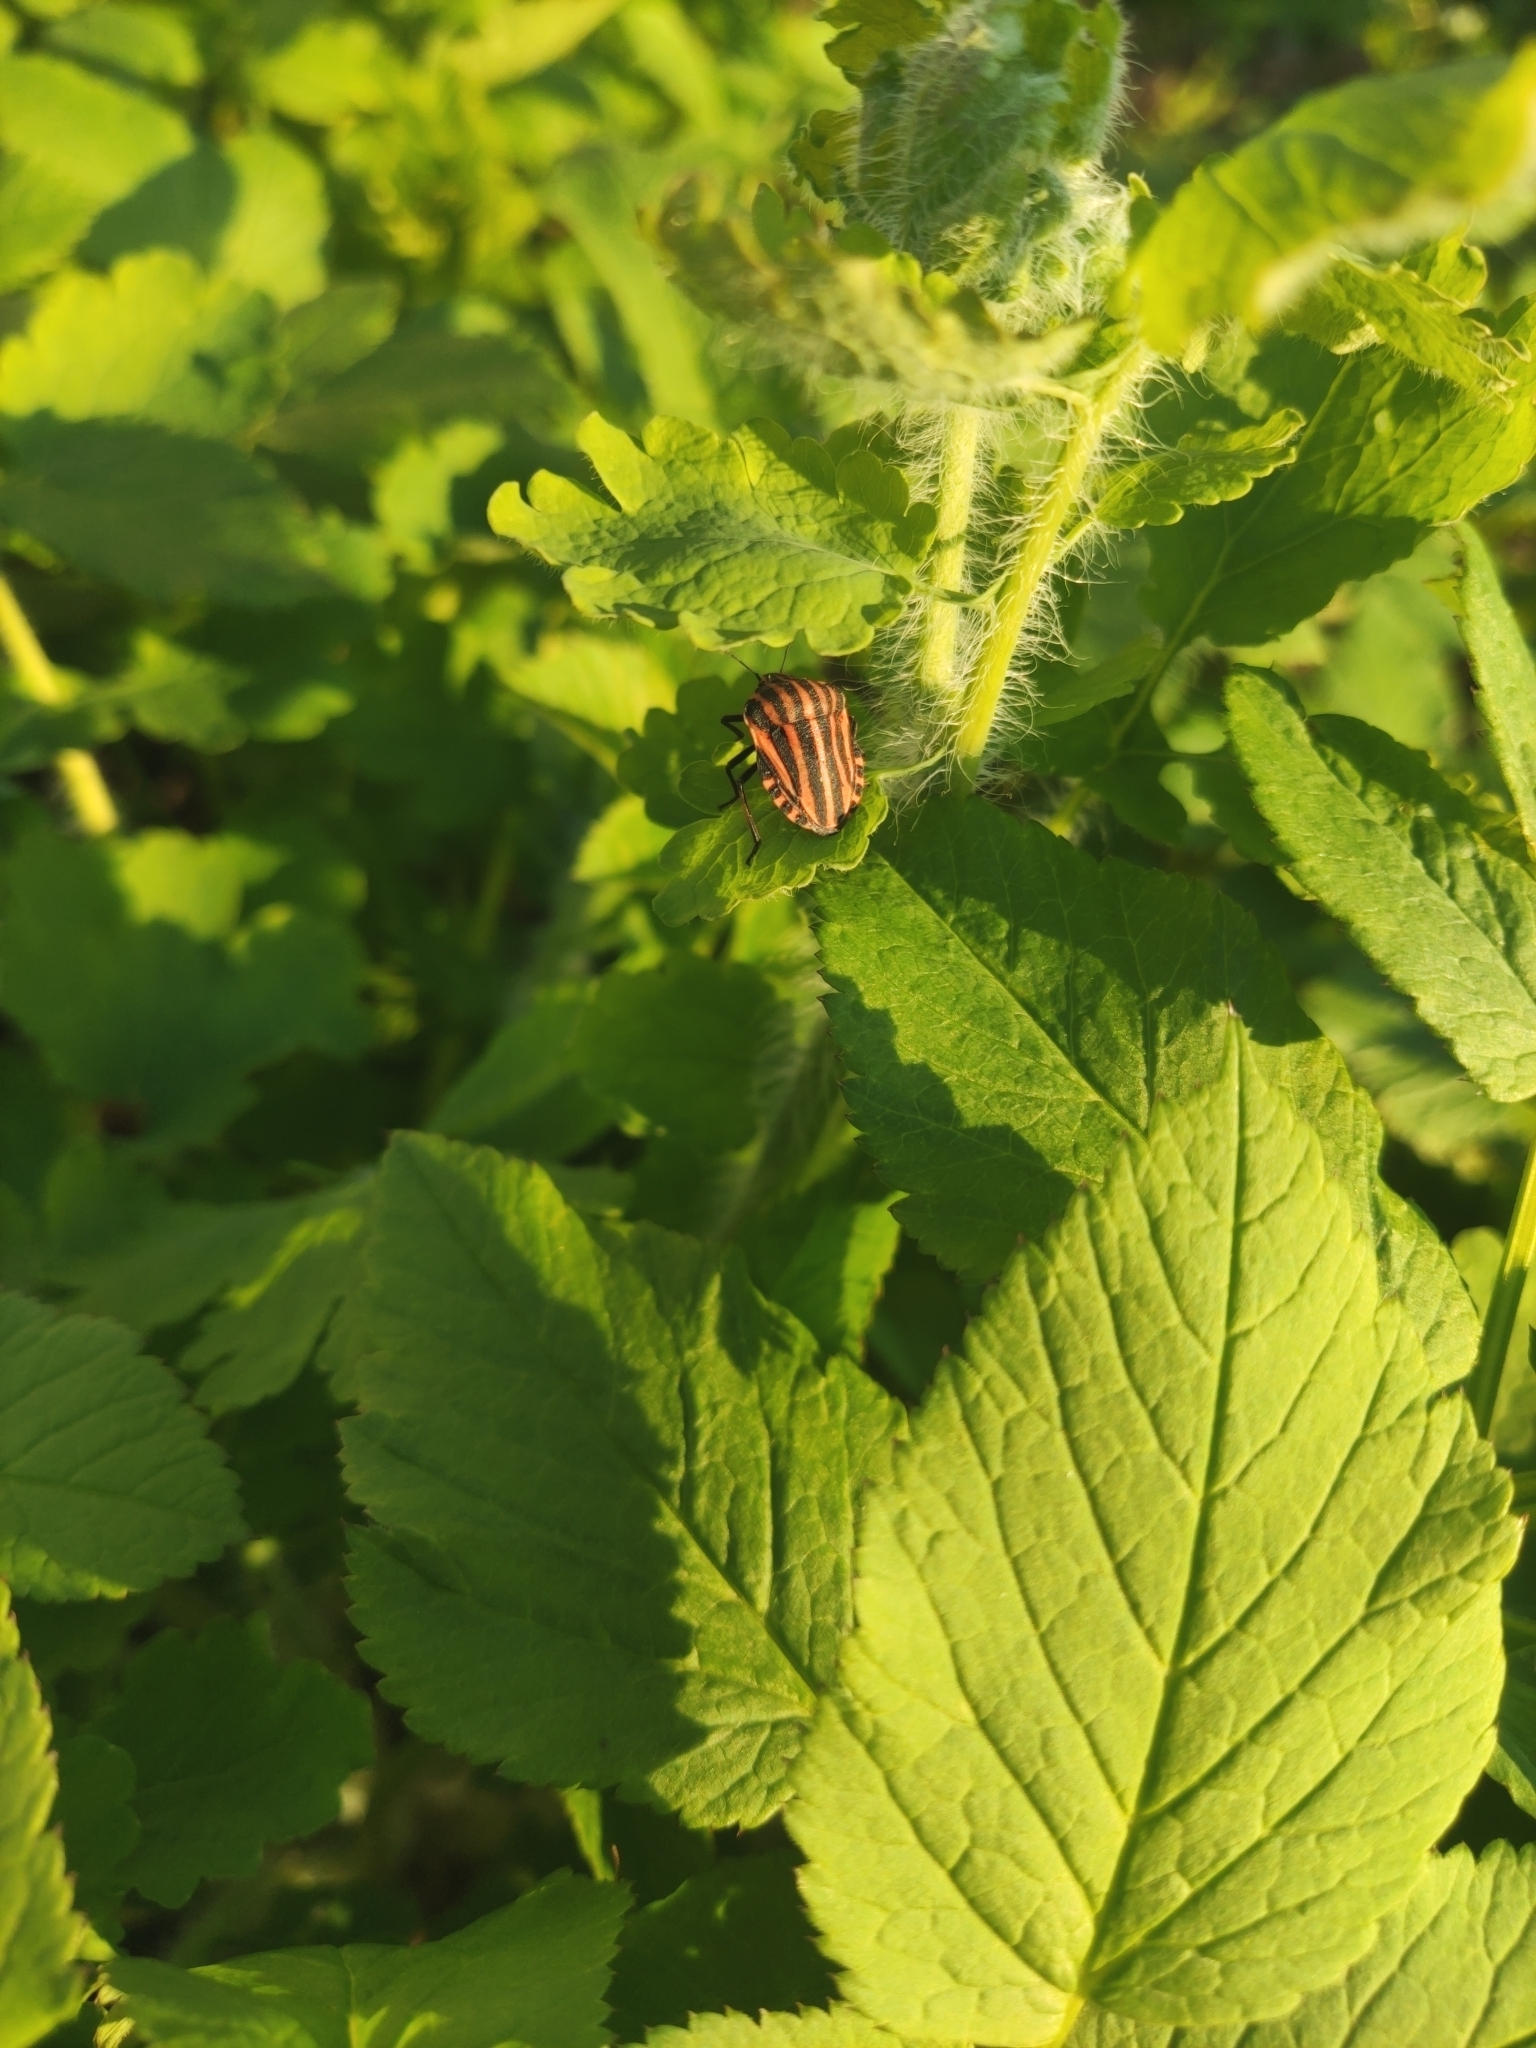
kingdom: Animalia
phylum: Arthropoda
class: Insecta
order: Hemiptera
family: Pentatomidae
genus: Graphosoma
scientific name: Graphosoma italicum
